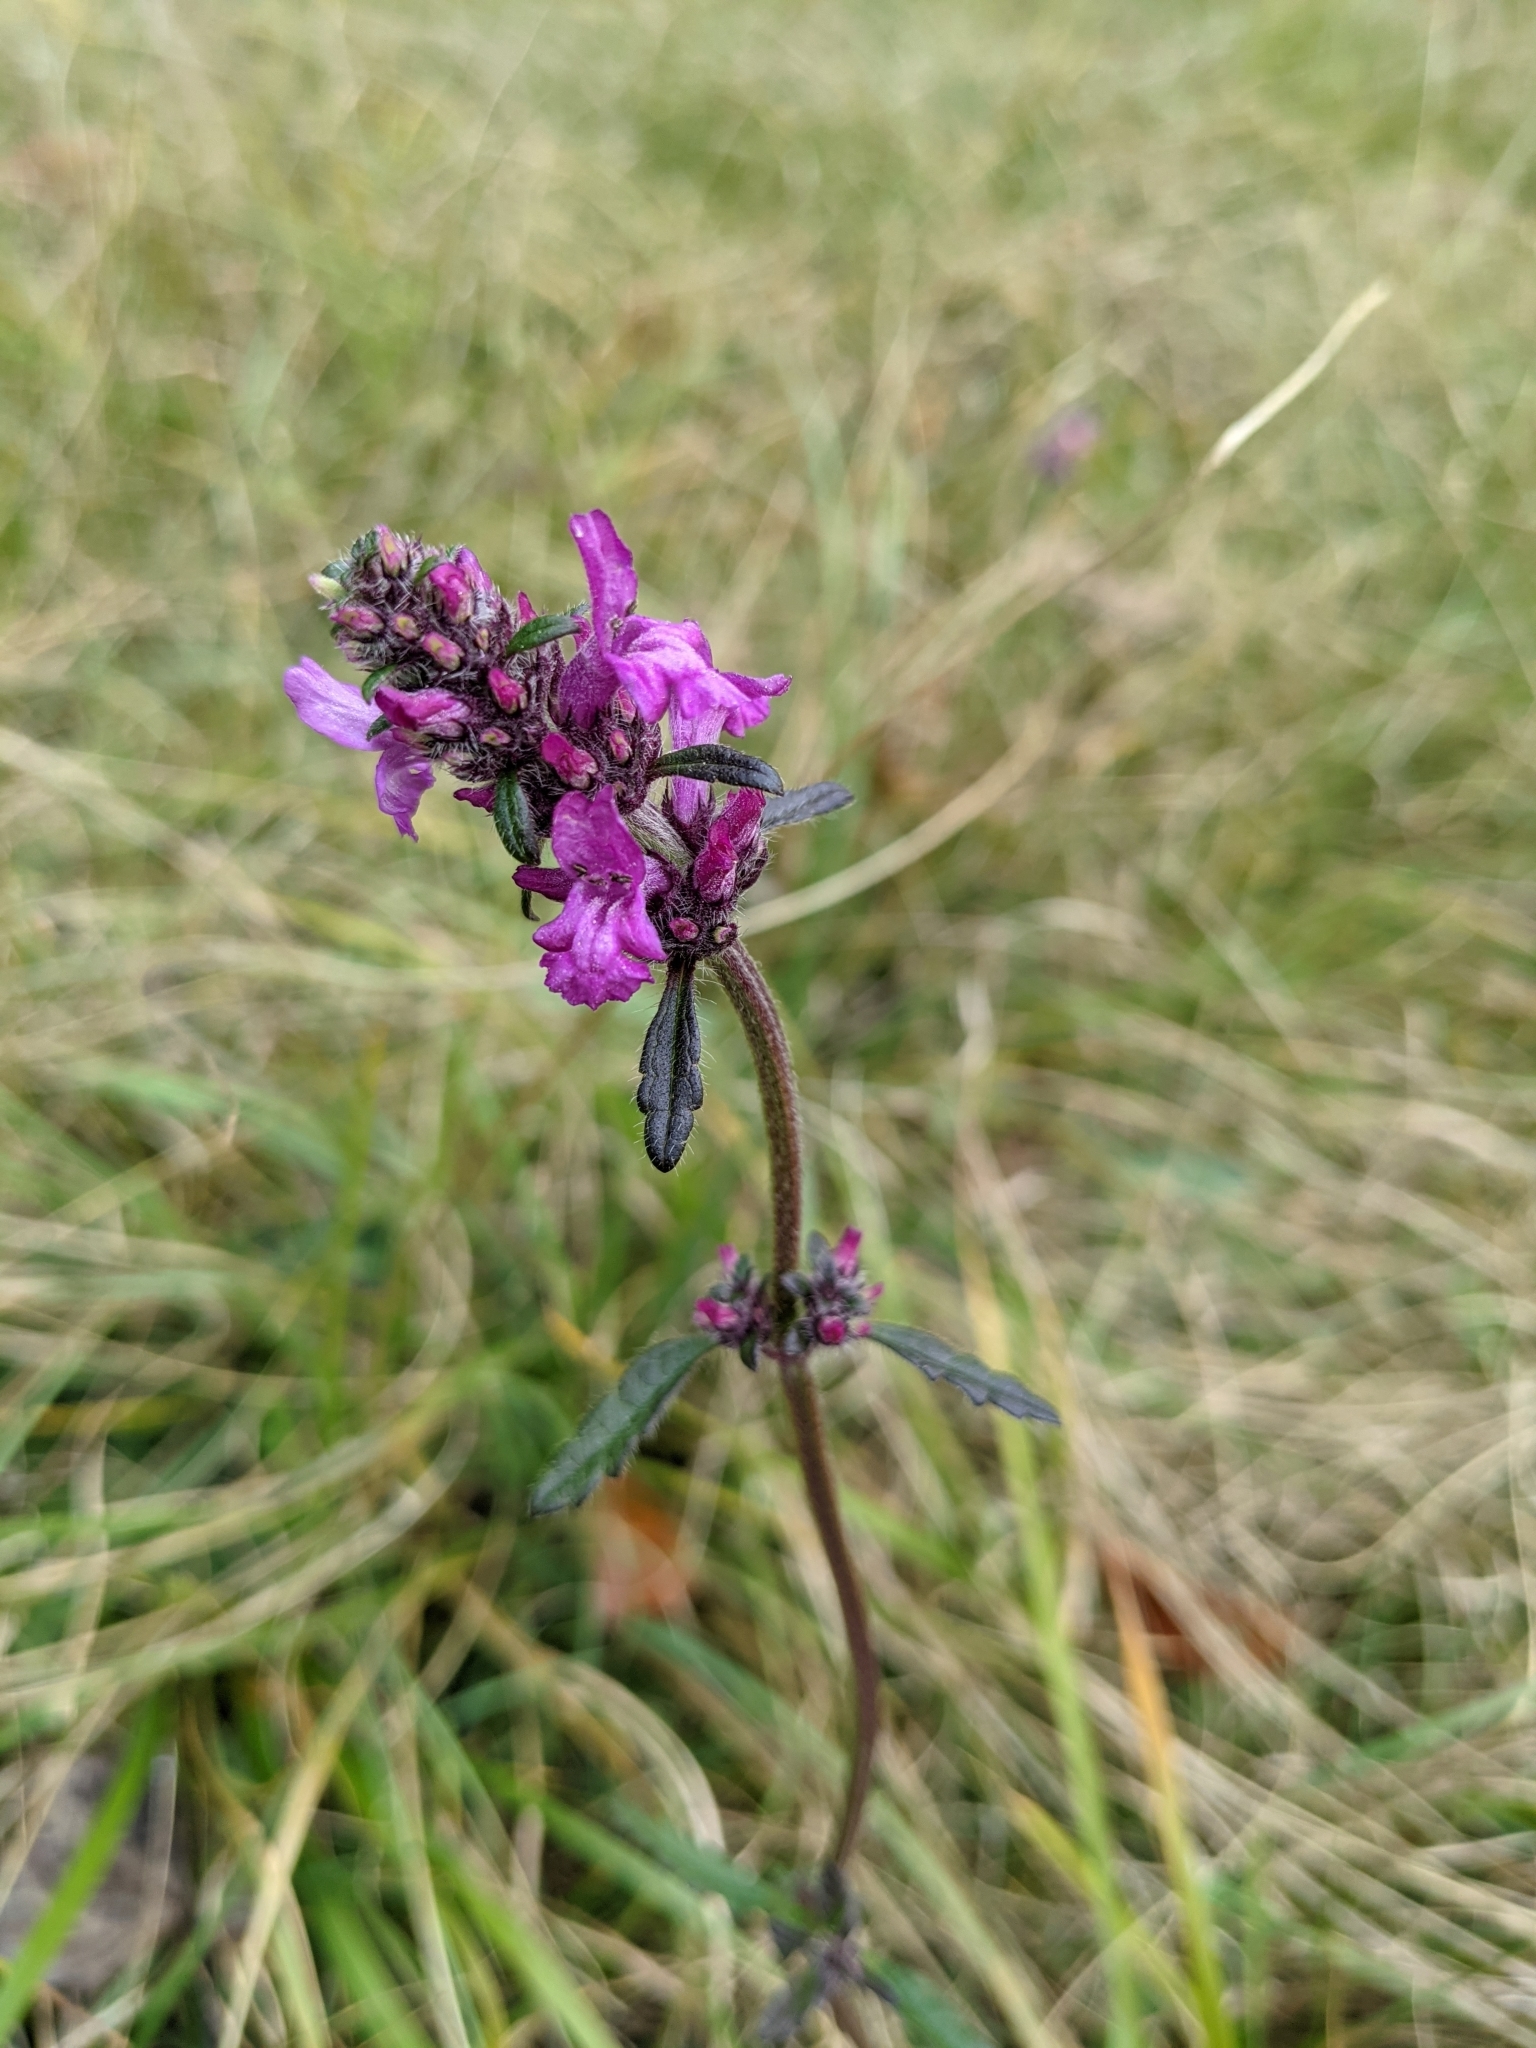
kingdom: Plantae
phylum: Tracheophyta
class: Magnoliopsida
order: Lamiales
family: Lamiaceae
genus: Betonica
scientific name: Betonica officinalis
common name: Bishop's-wort
